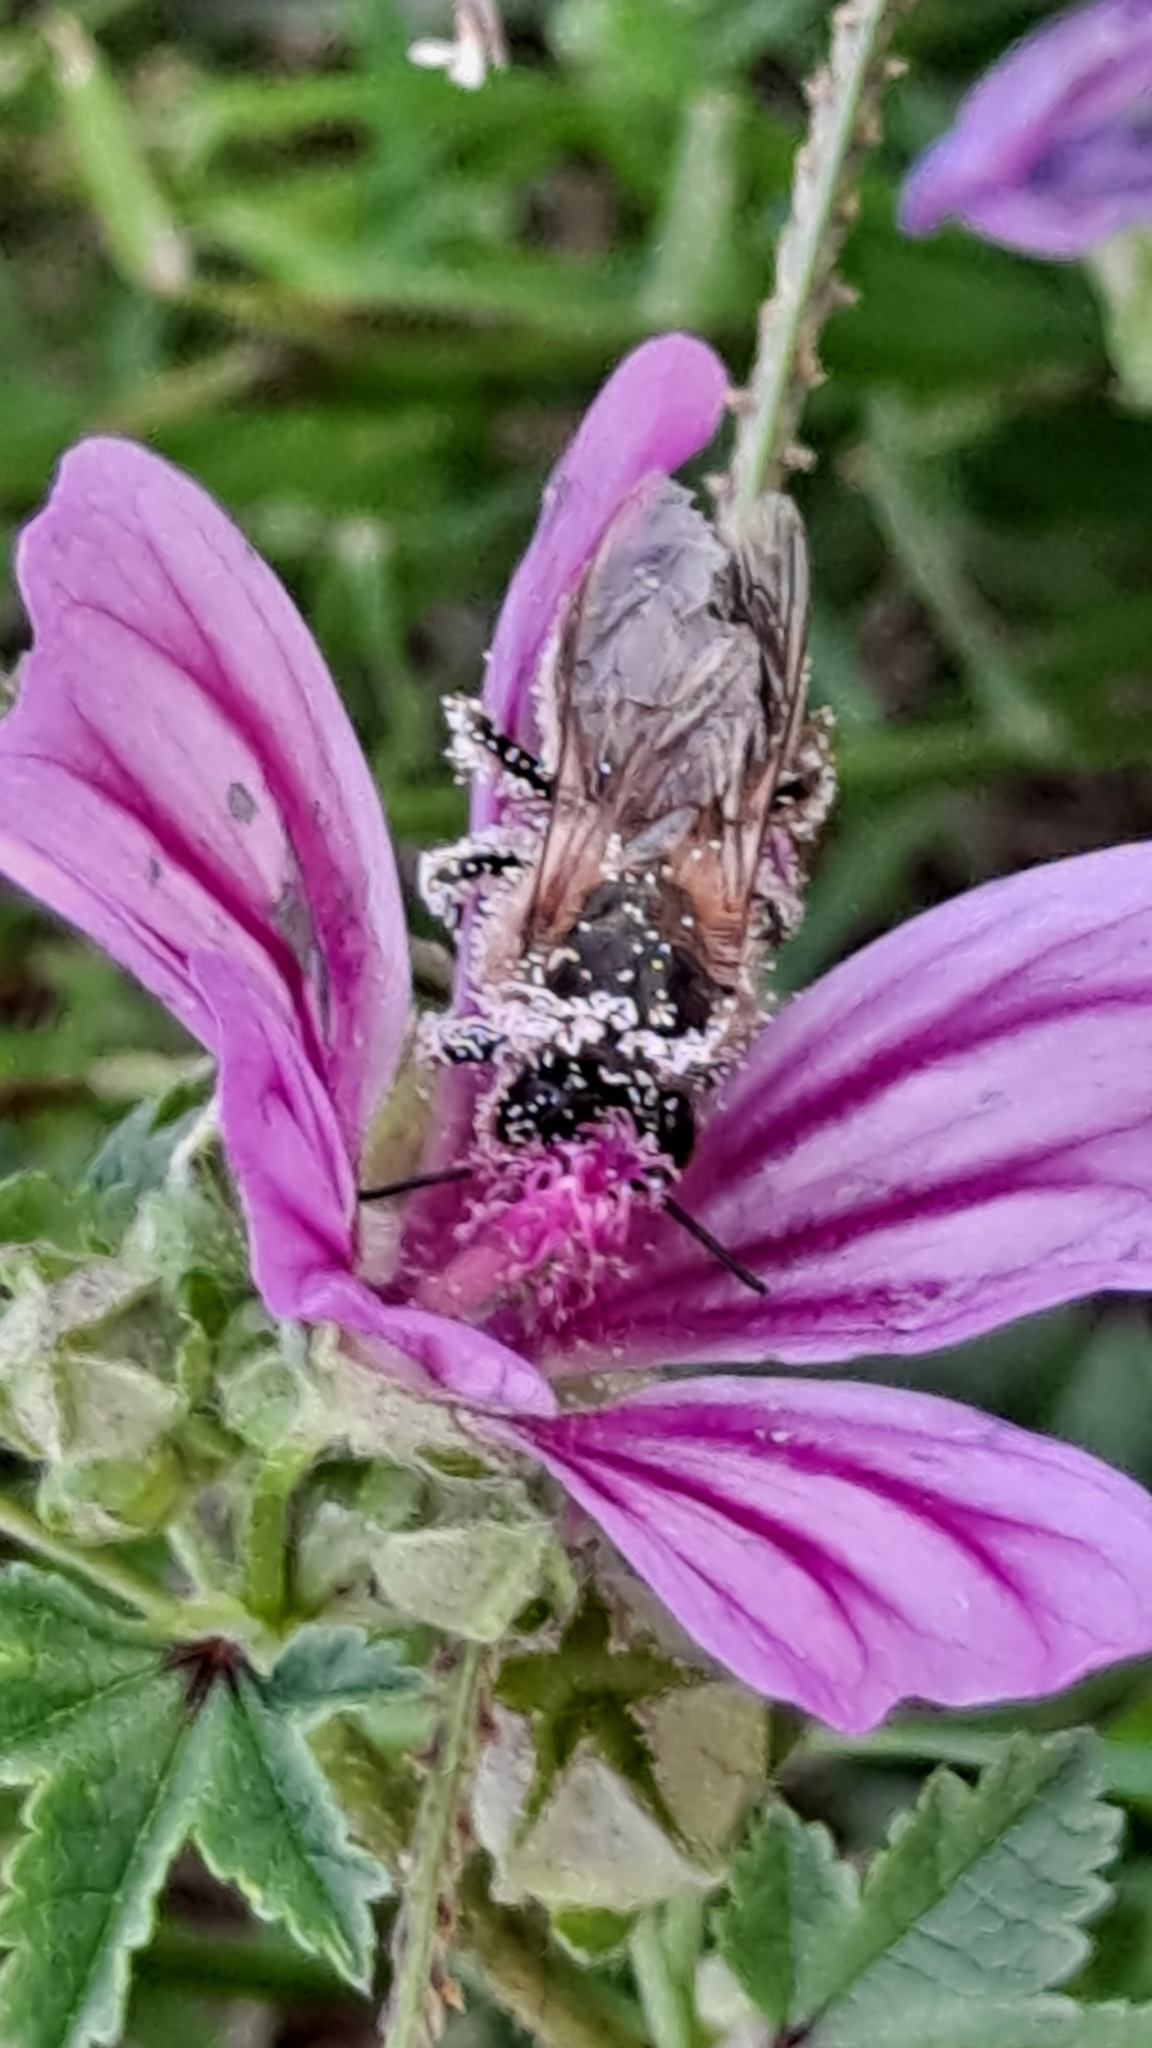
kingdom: Animalia
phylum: Arthropoda
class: Insecta
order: Hymenoptera
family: Apidae
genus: Apis
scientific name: Apis mellifera
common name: Honey bee
